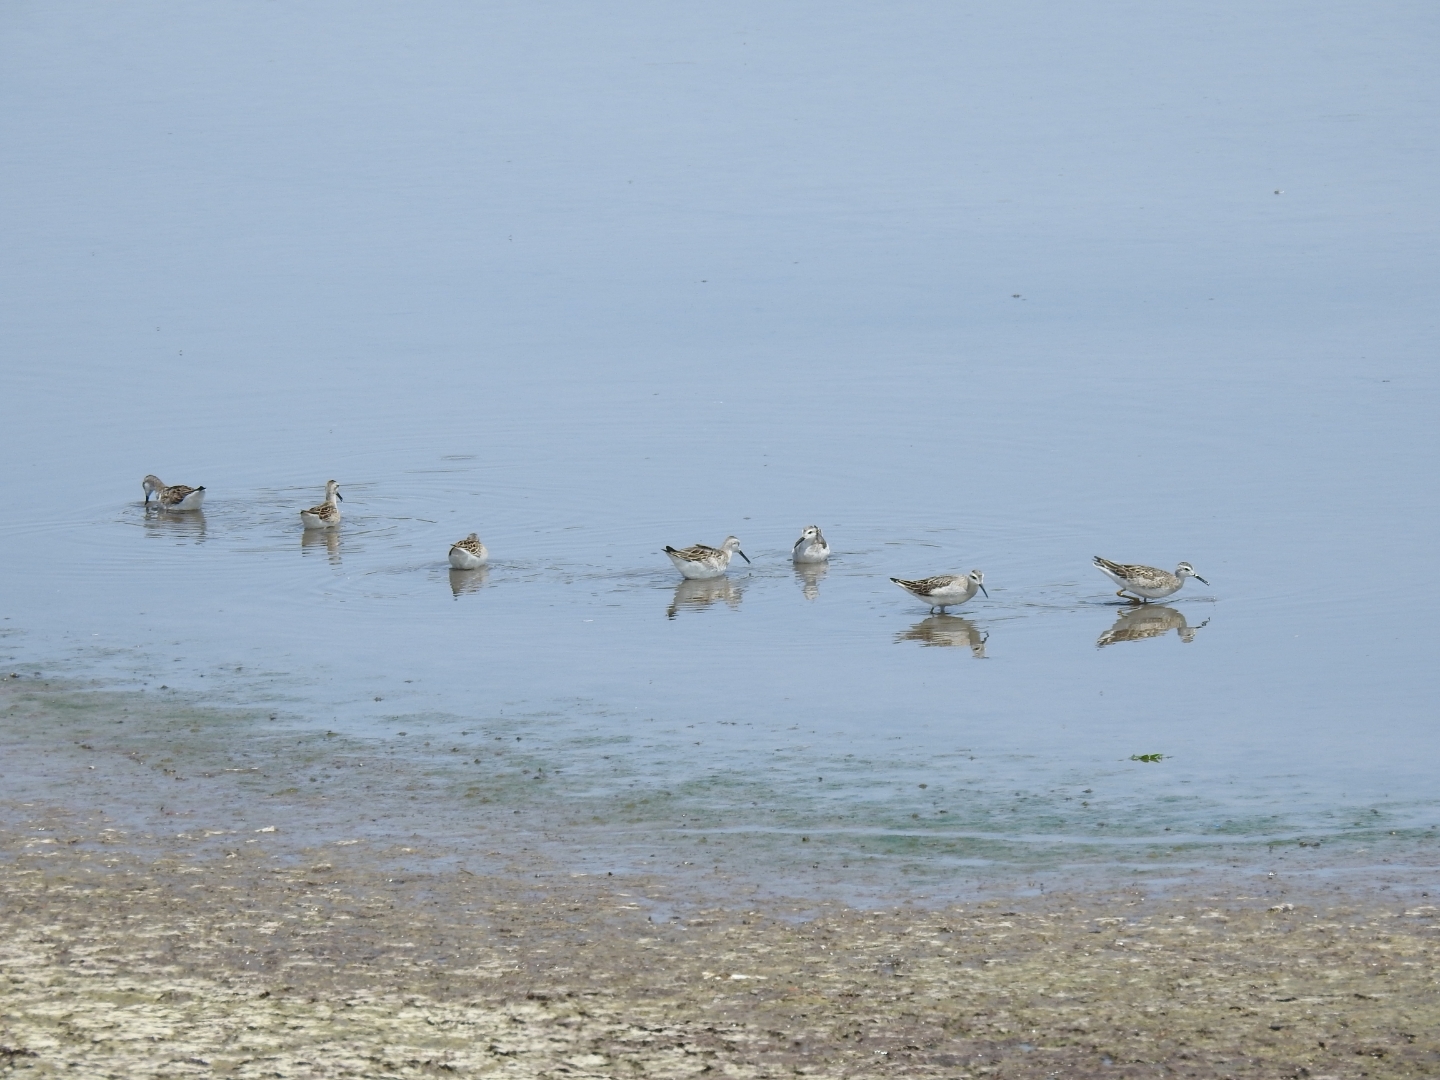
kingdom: Animalia
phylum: Chordata
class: Aves
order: Charadriiformes
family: Scolopacidae
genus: Phalaropus
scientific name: Phalaropus tricolor
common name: Wilson's phalarope
